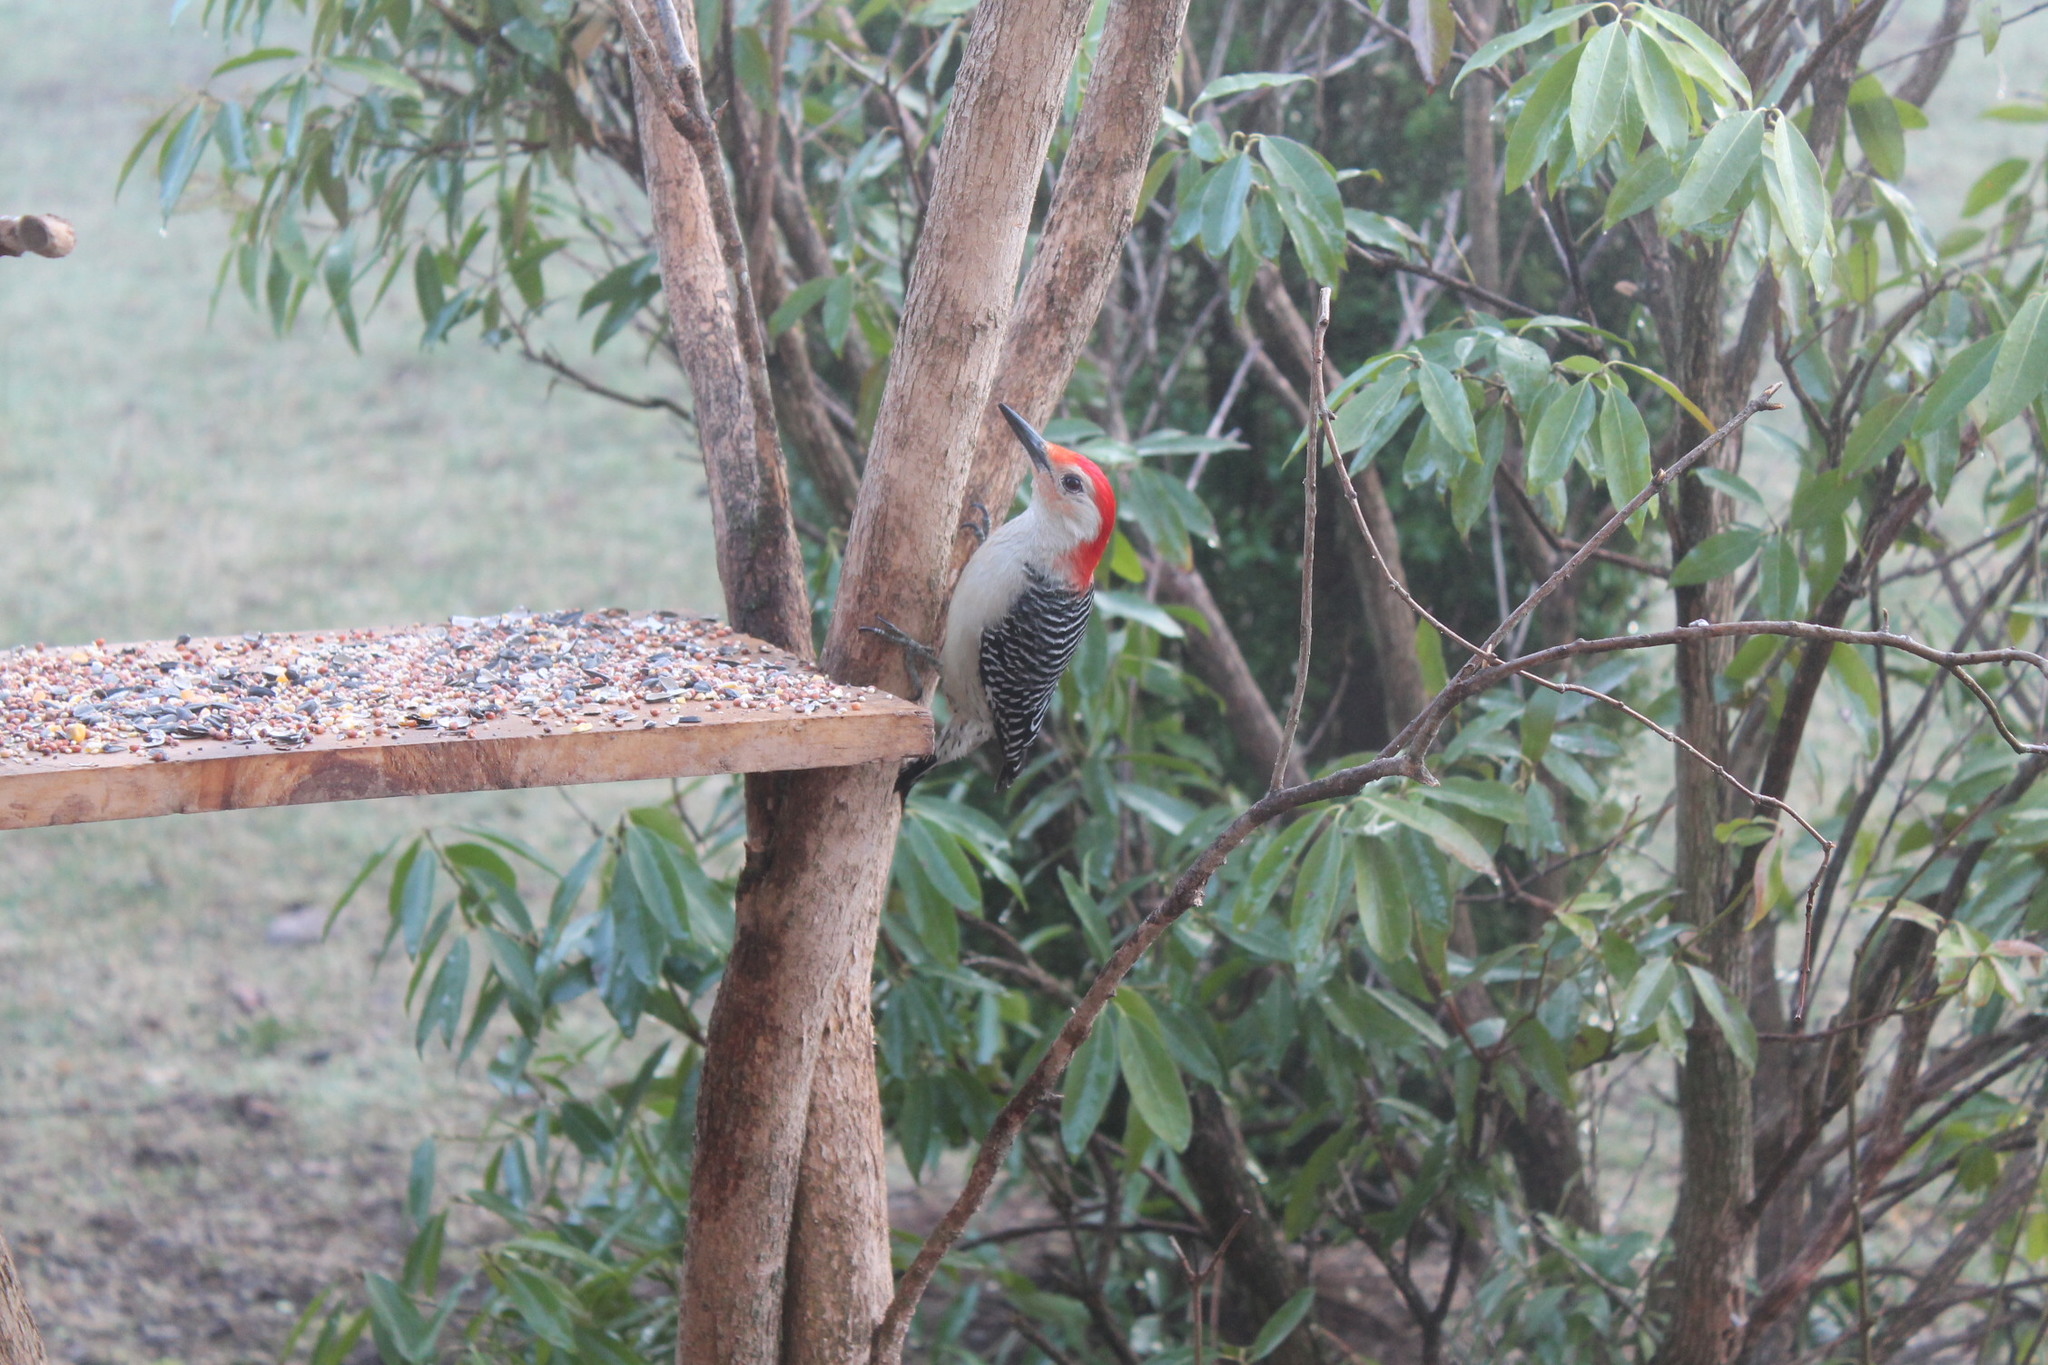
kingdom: Animalia
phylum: Chordata
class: Aves
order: Piciformes
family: Picidae
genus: Melanerpes
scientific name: Melanerpes carolinus
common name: Red-bellied woodpecker
